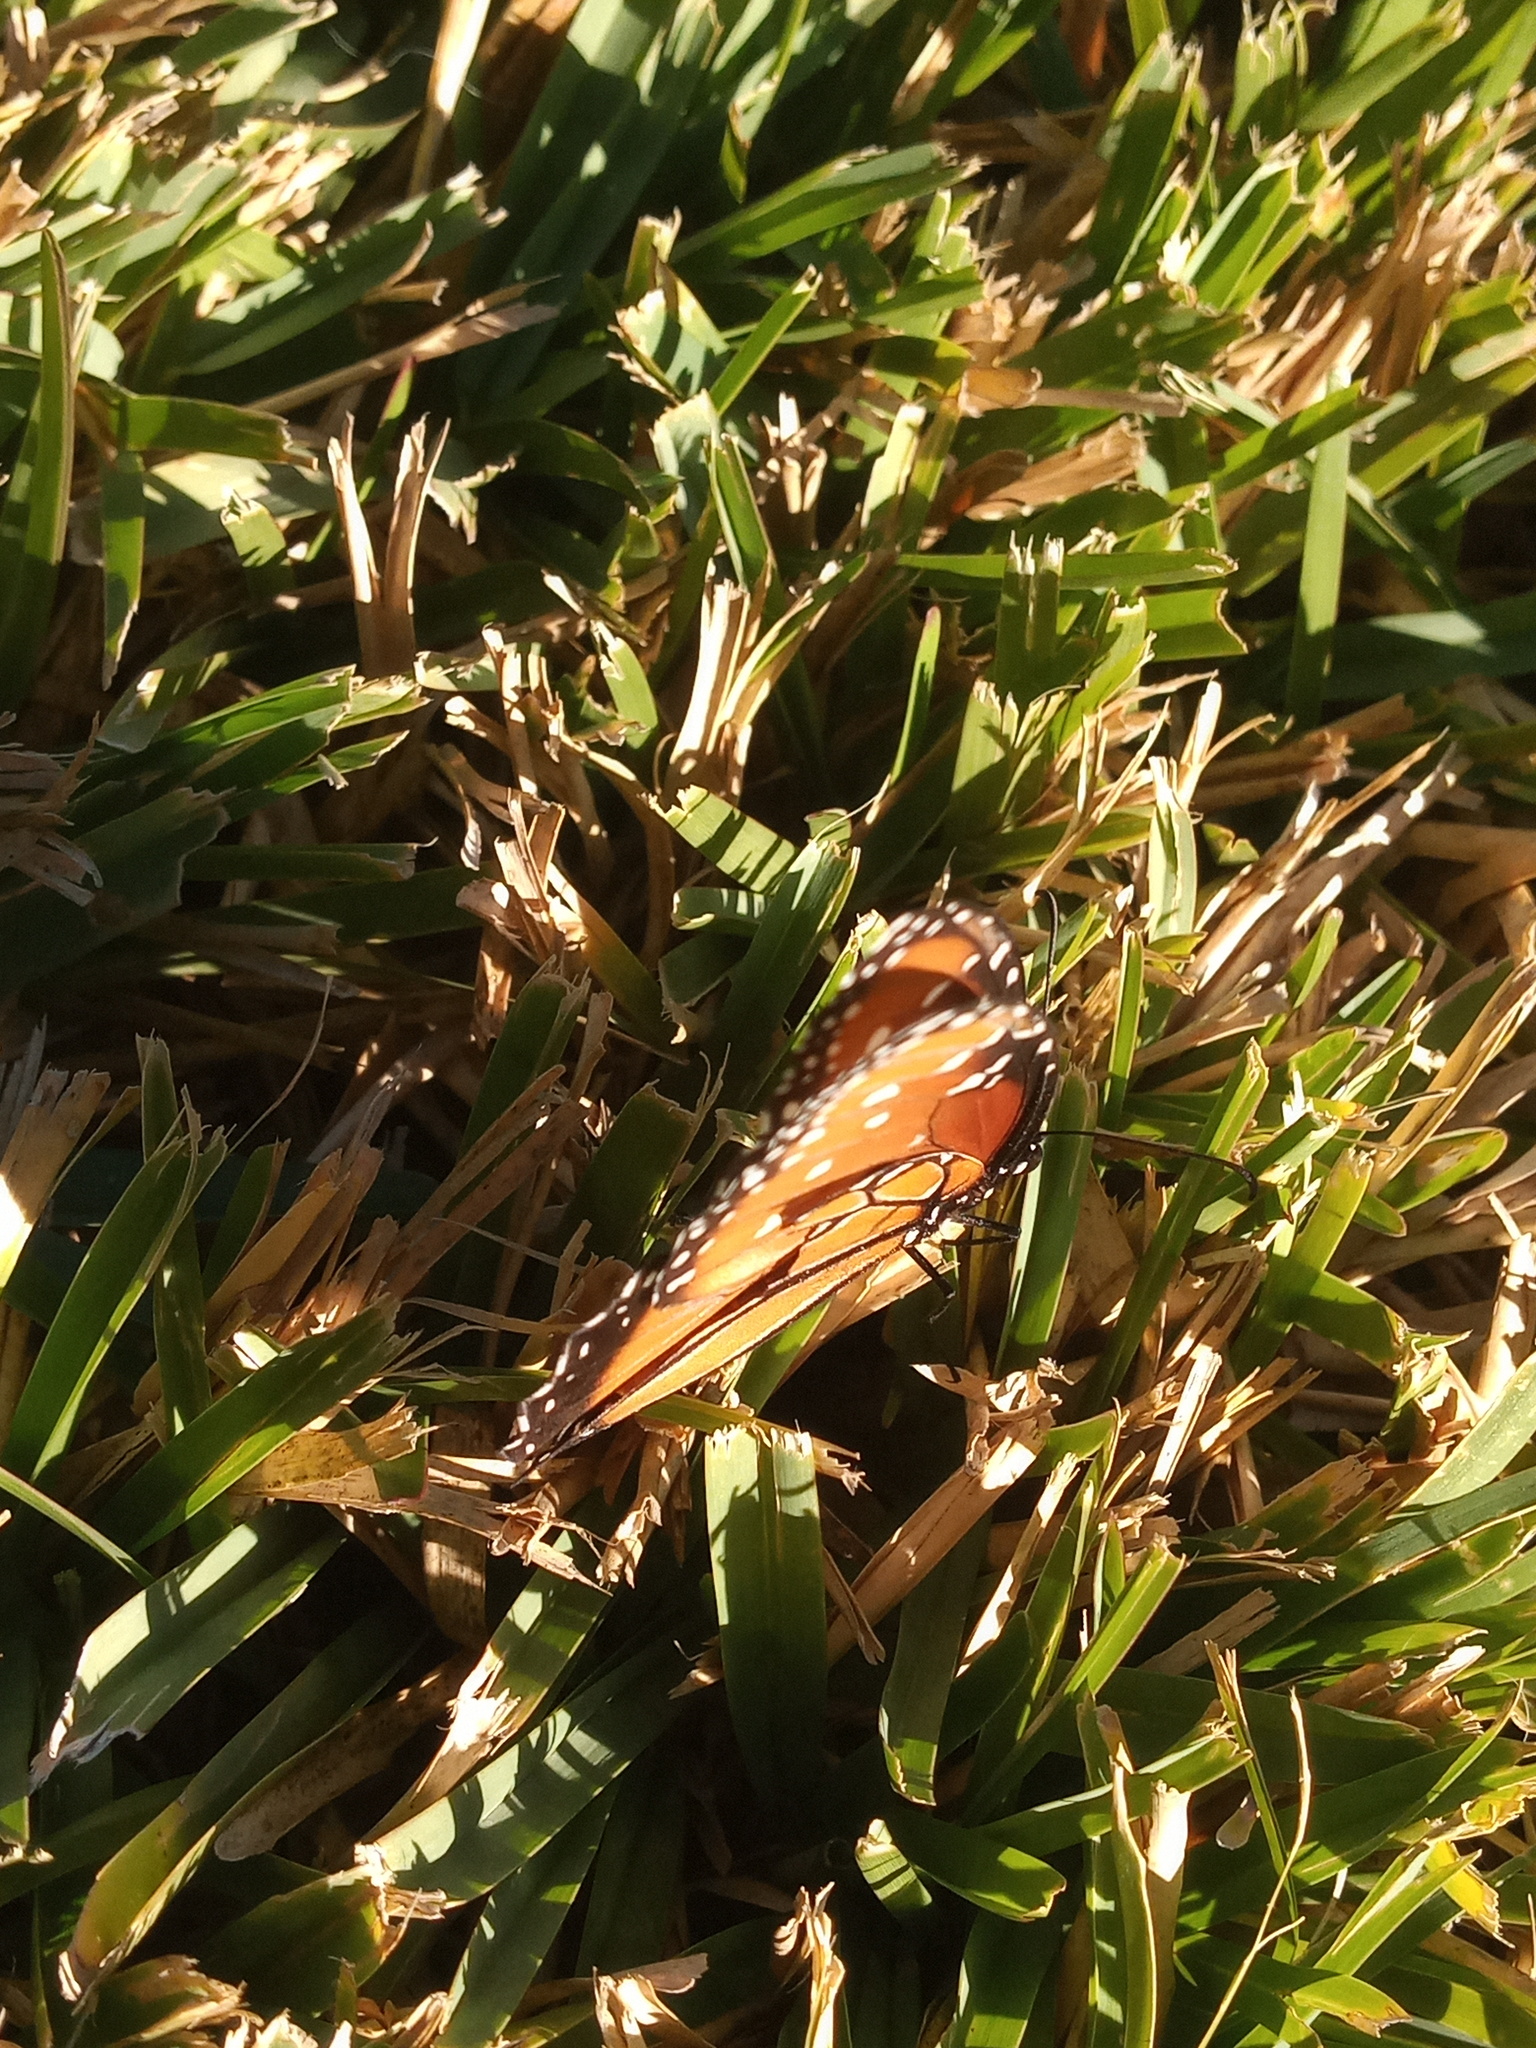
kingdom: Animalia
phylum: Arthropoda
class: Insecta
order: Lepidoptera
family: Nymphalidae
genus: Danaus
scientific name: Danaus gilippus
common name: Queen
